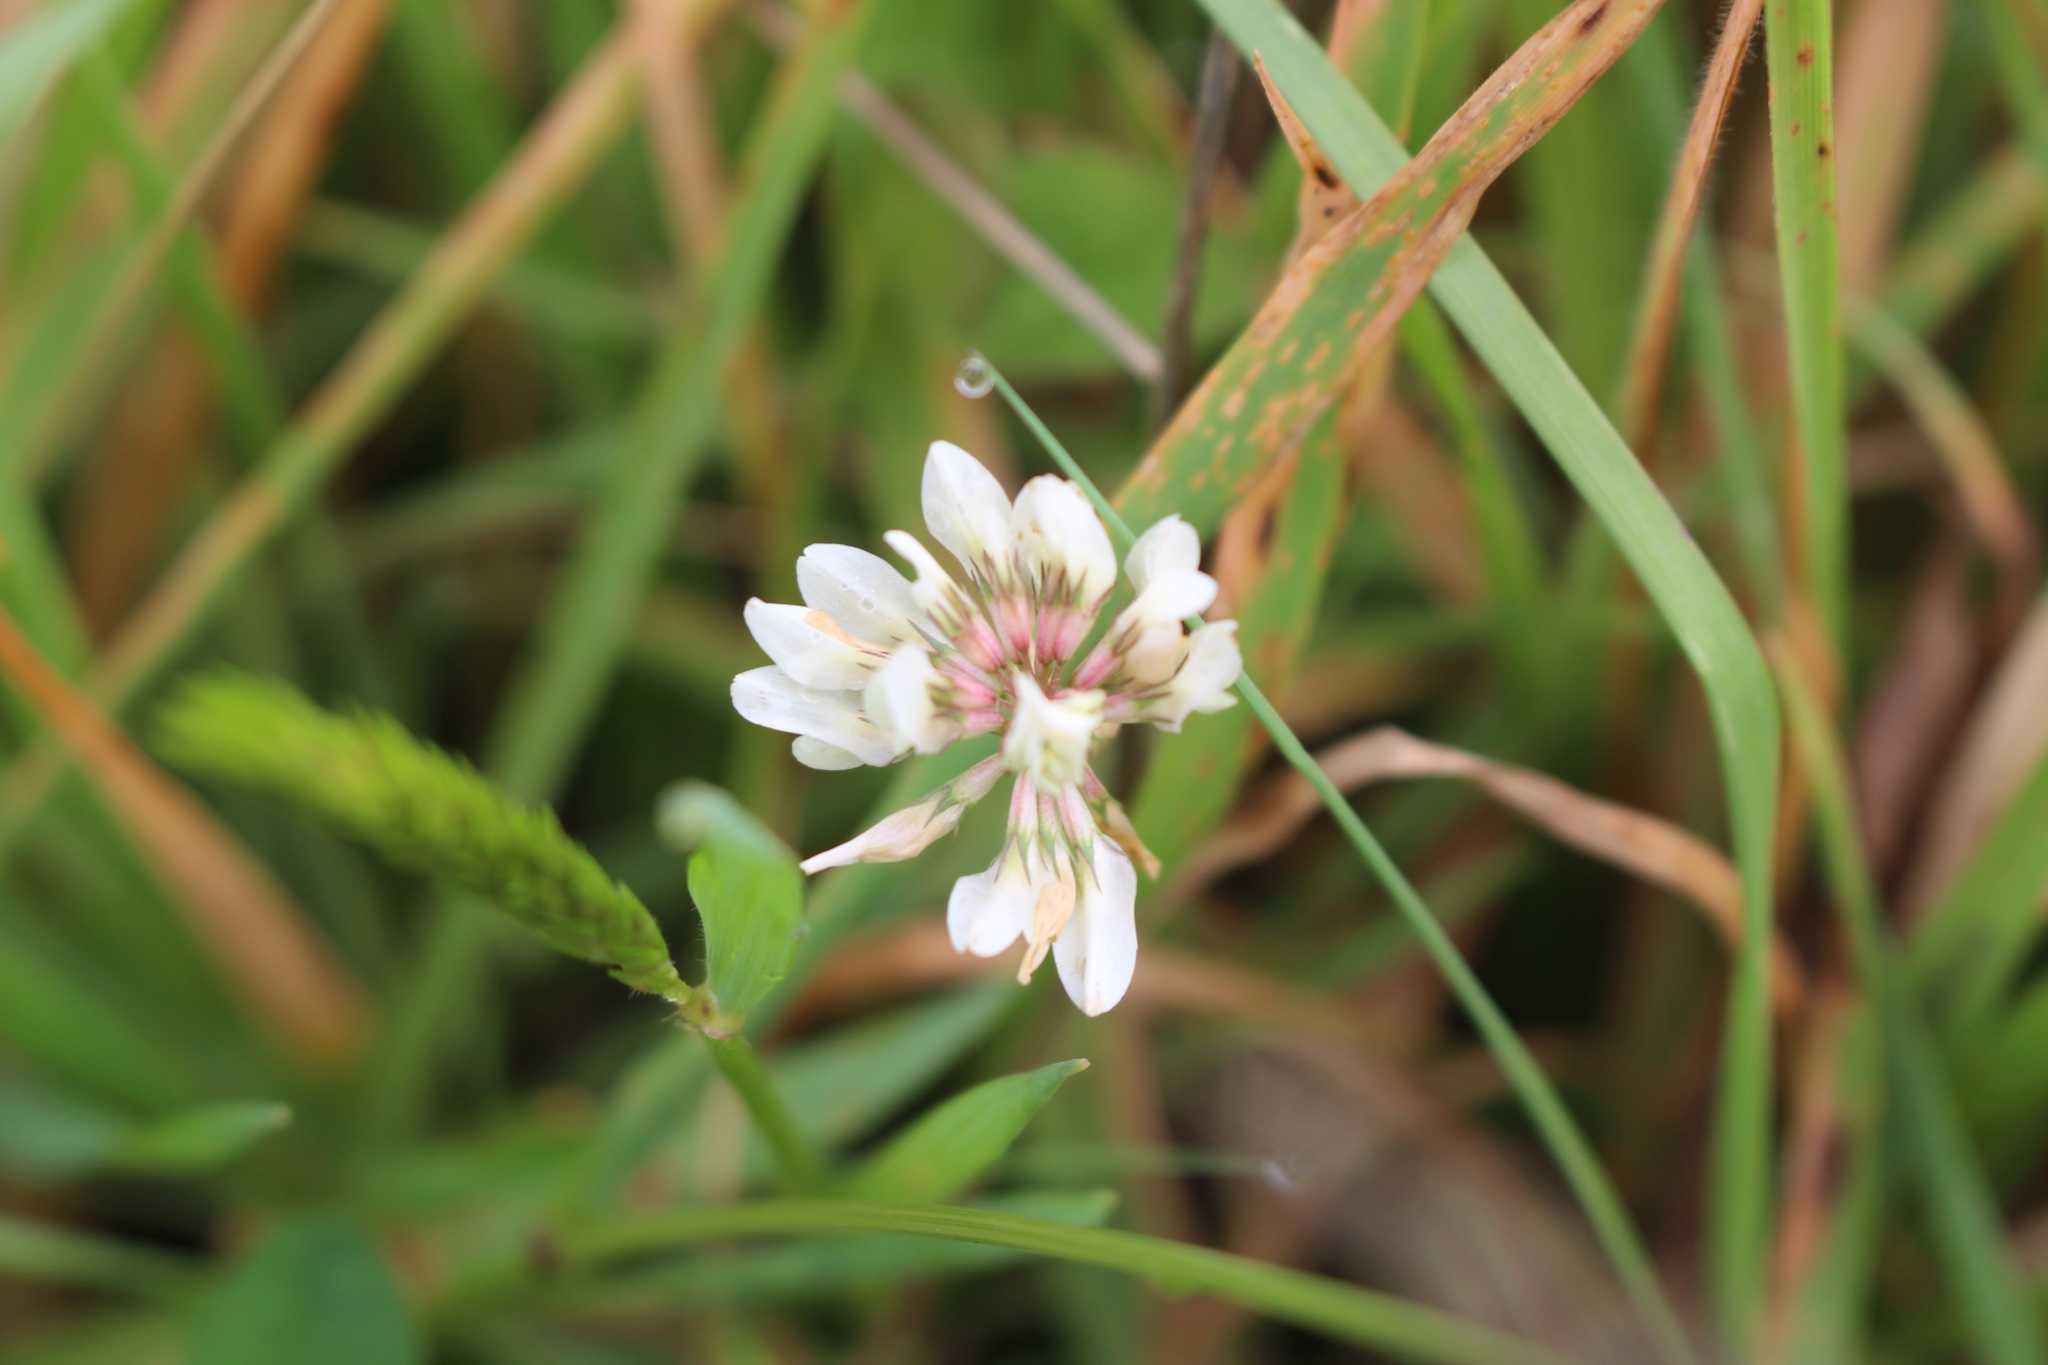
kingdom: Plantae
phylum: Tracheophyta
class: Magnoliopsida
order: Fabales
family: Fabaceae
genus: Trifolium
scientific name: Trifolium repens
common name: White clover
